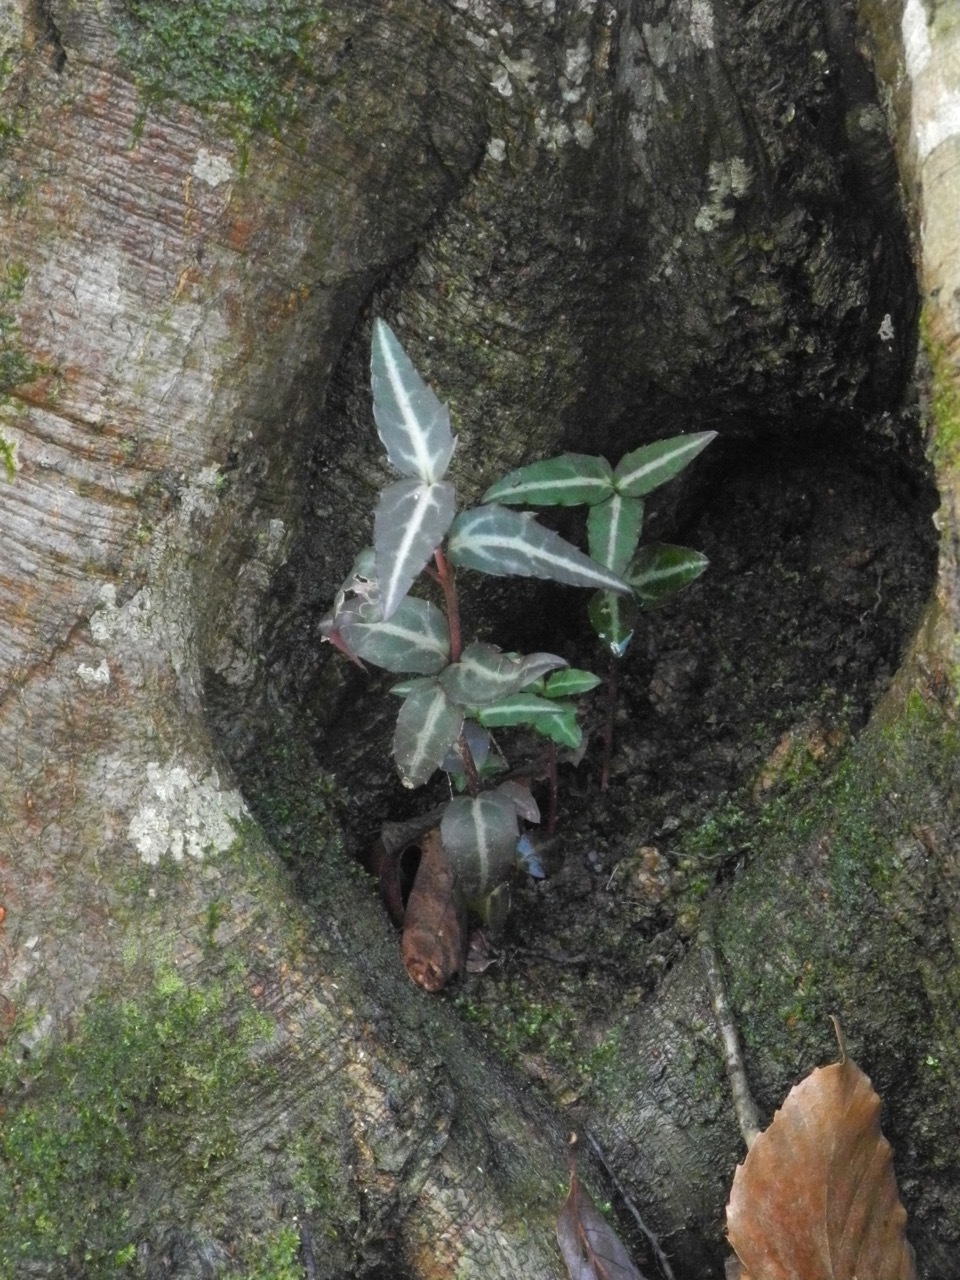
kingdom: Plantae
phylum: Tracheophyta
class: Magnoliopsida
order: Ericales
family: Ericaceae
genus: Chimaphila
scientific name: Chimaphila maculata
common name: Spotted pipsissewa
